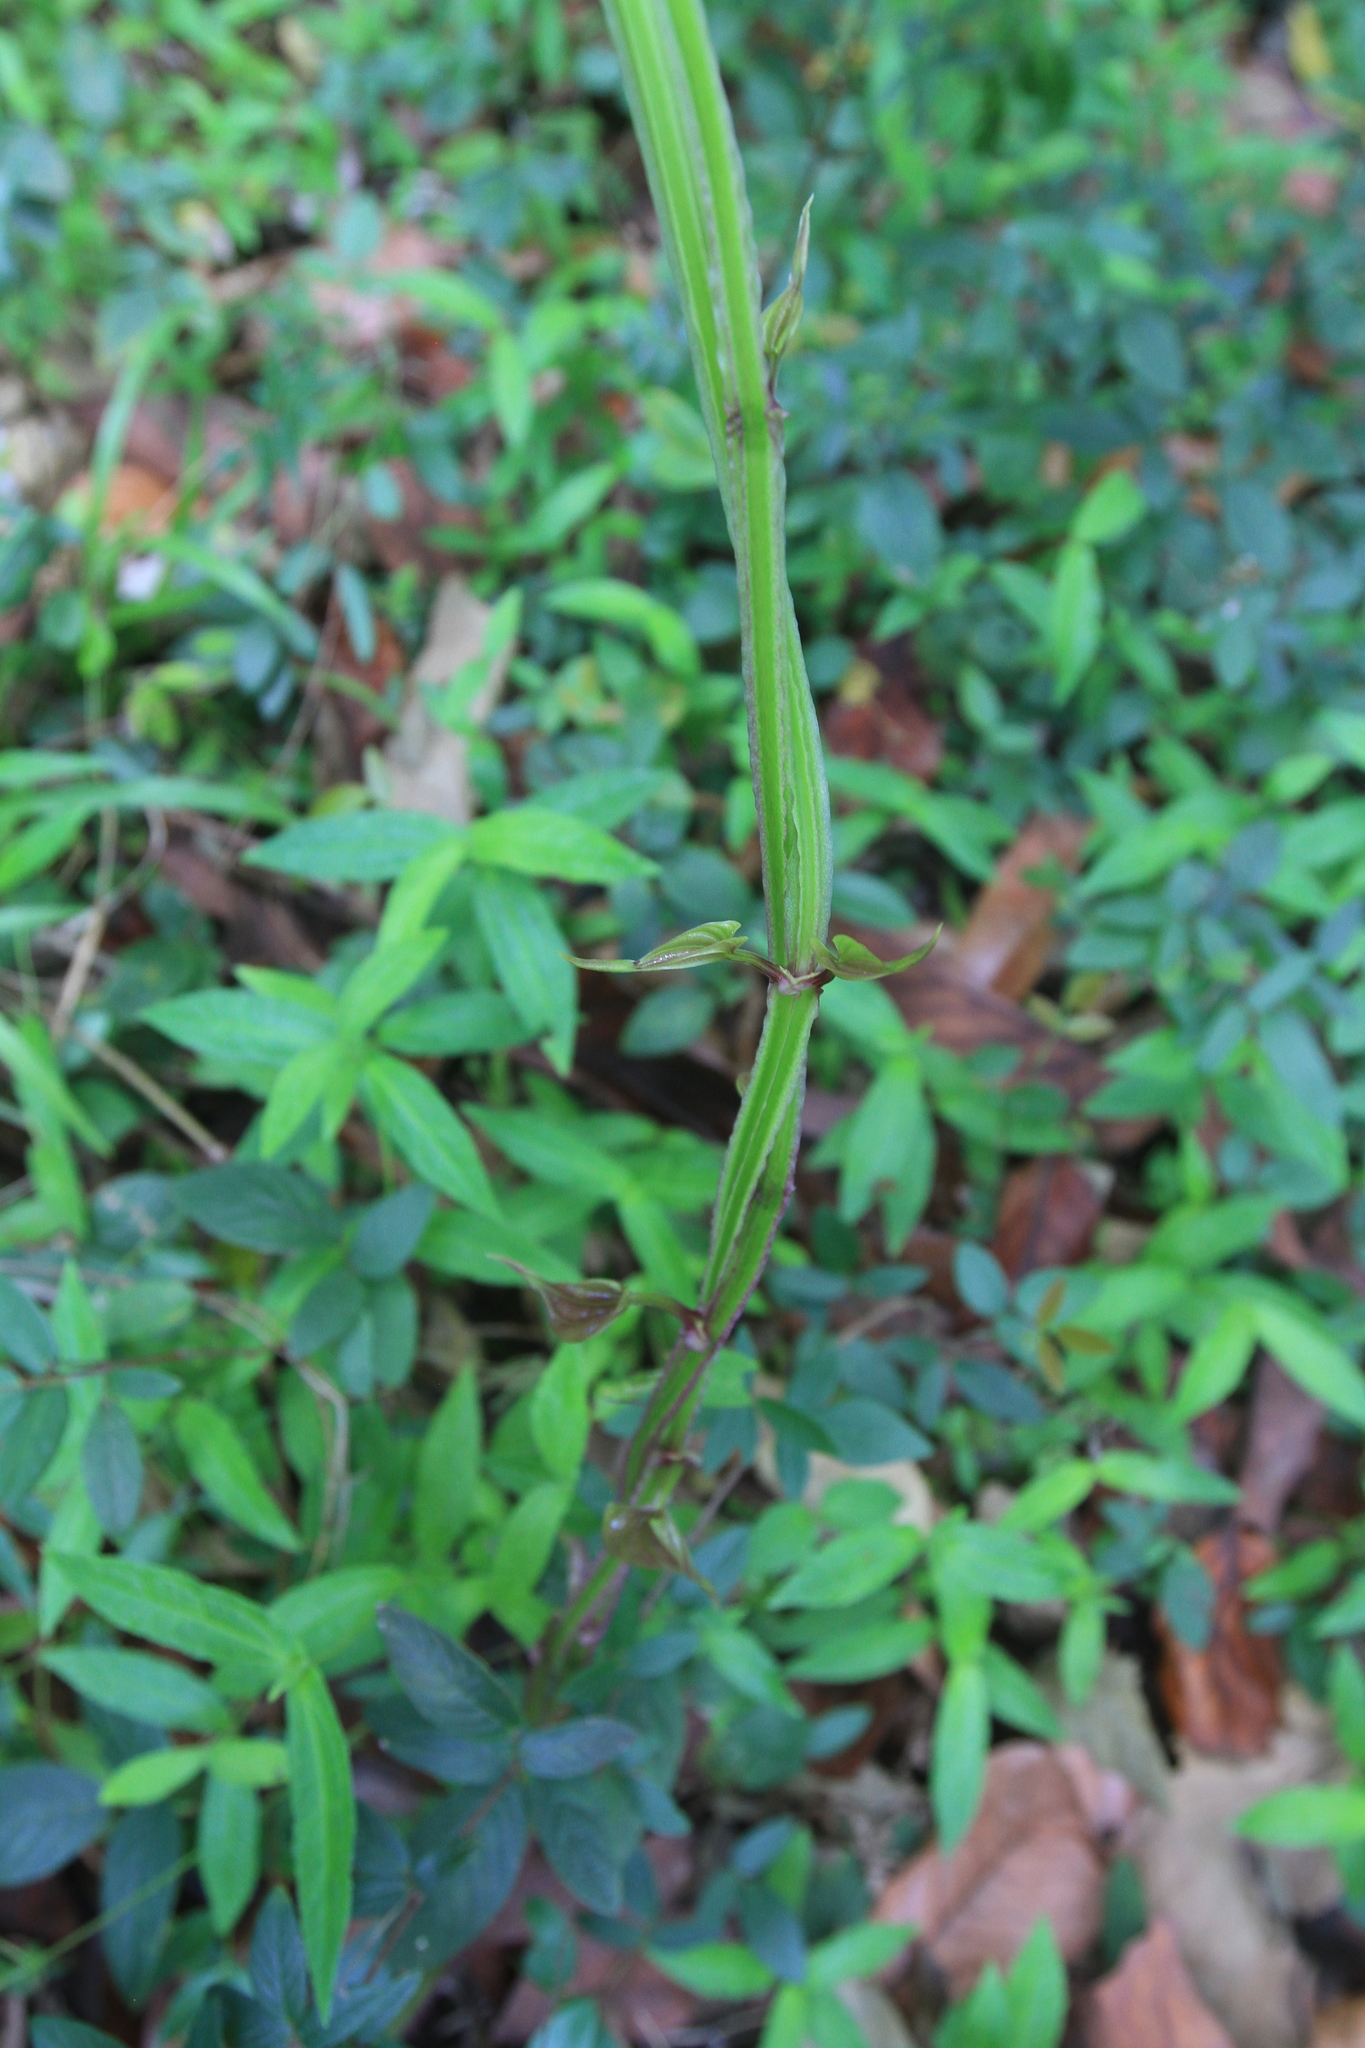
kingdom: Plantae
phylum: Tracheophyta
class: Liliopsida
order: Dioscoreales
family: Dioscoreaceae
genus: Dioscorea
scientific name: Dioscorea alata
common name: Water yam
